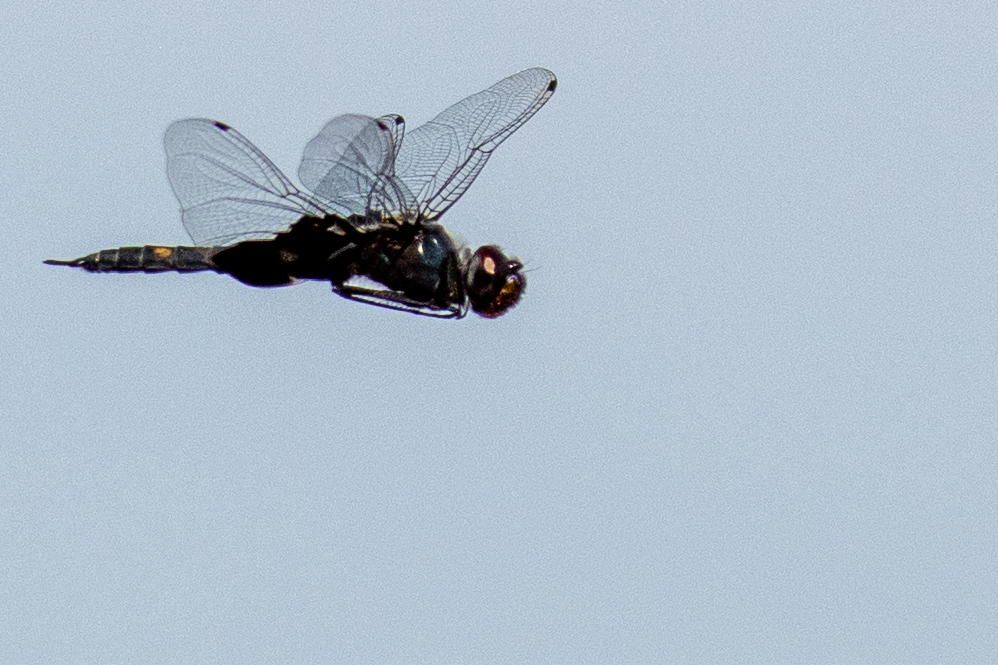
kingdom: Animalia
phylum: Arthropoda
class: Insecta
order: Odonata
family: Libellulidae
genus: Tramea
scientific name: Tramea lacerata
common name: Black saddlebags
